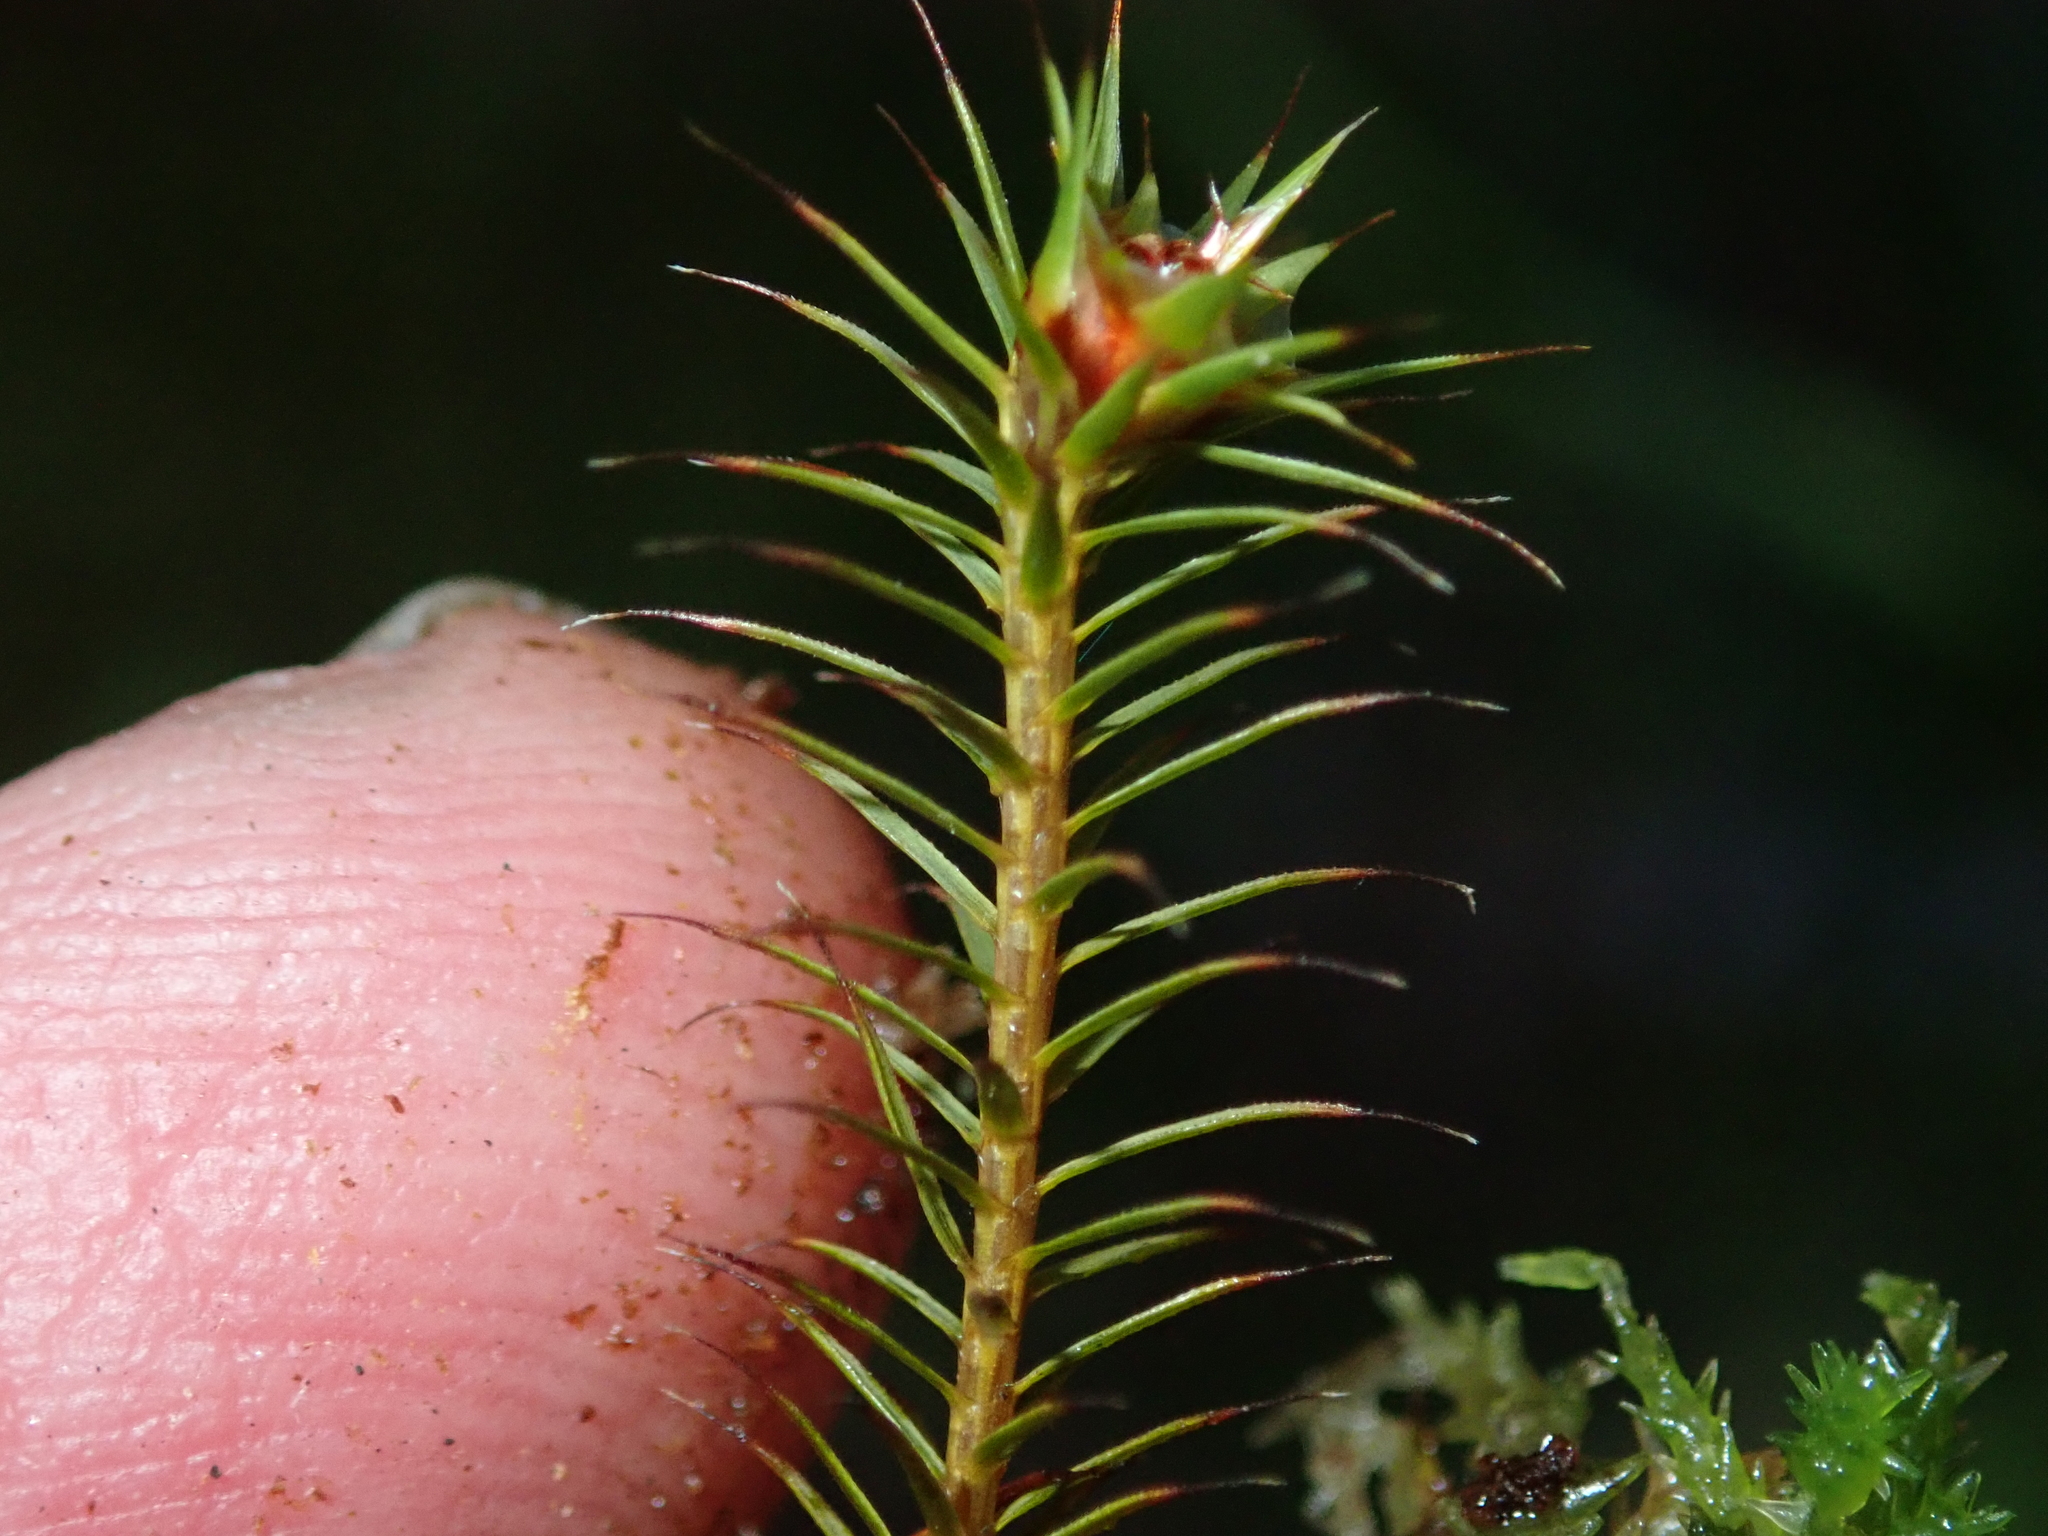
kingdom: Plantae
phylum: Bryophyta
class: Polytrichopsida
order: Polytrichales
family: Polytrichaceae
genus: Polytrichum
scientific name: Polytrichum piliferum
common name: Bristly haircap
